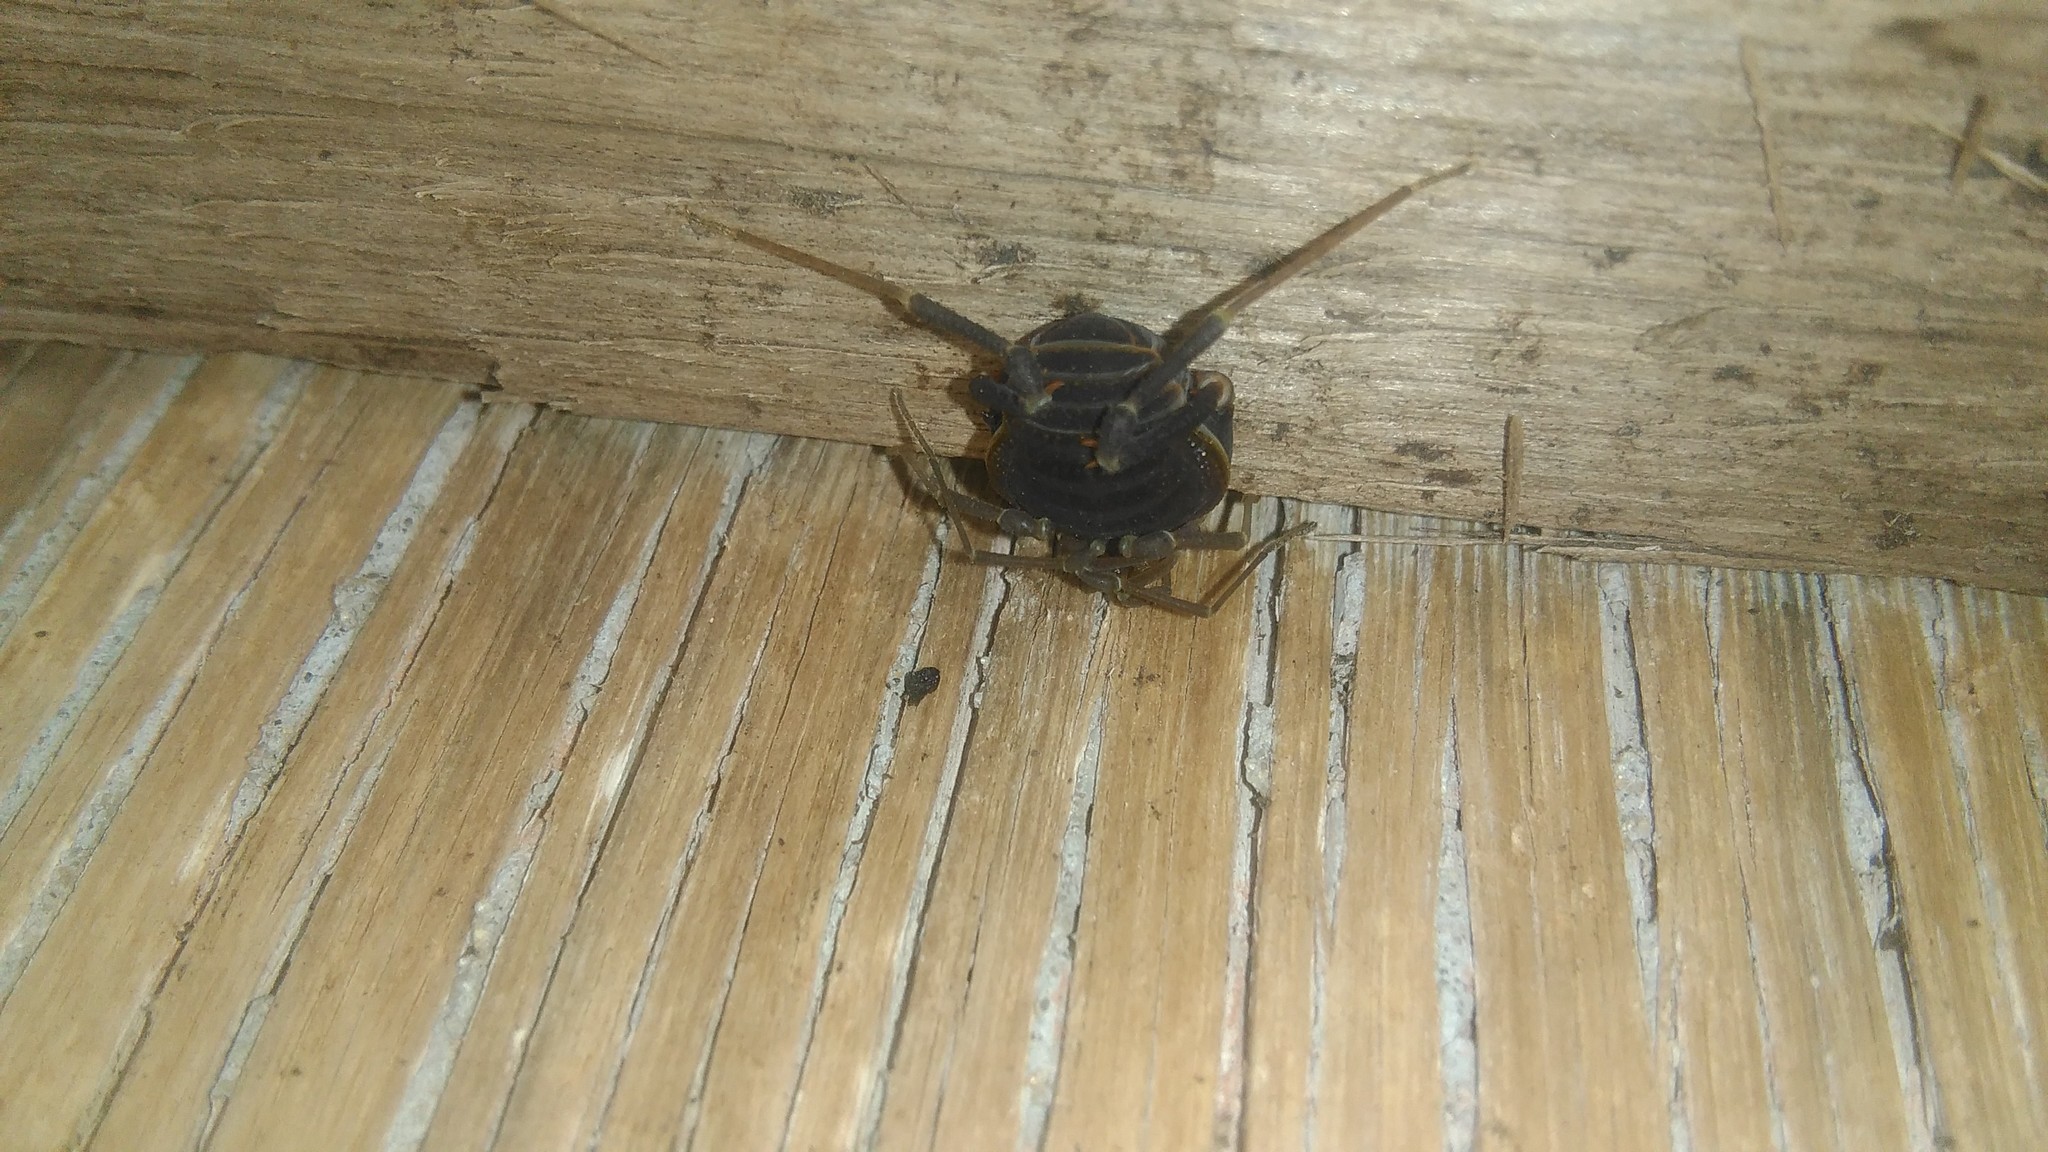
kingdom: Animalia
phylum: Arthropoda
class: Arachnida
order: Opiliones
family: Gonyleptidae
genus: Acanthopachylus
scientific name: Acanthopachylus robustus
